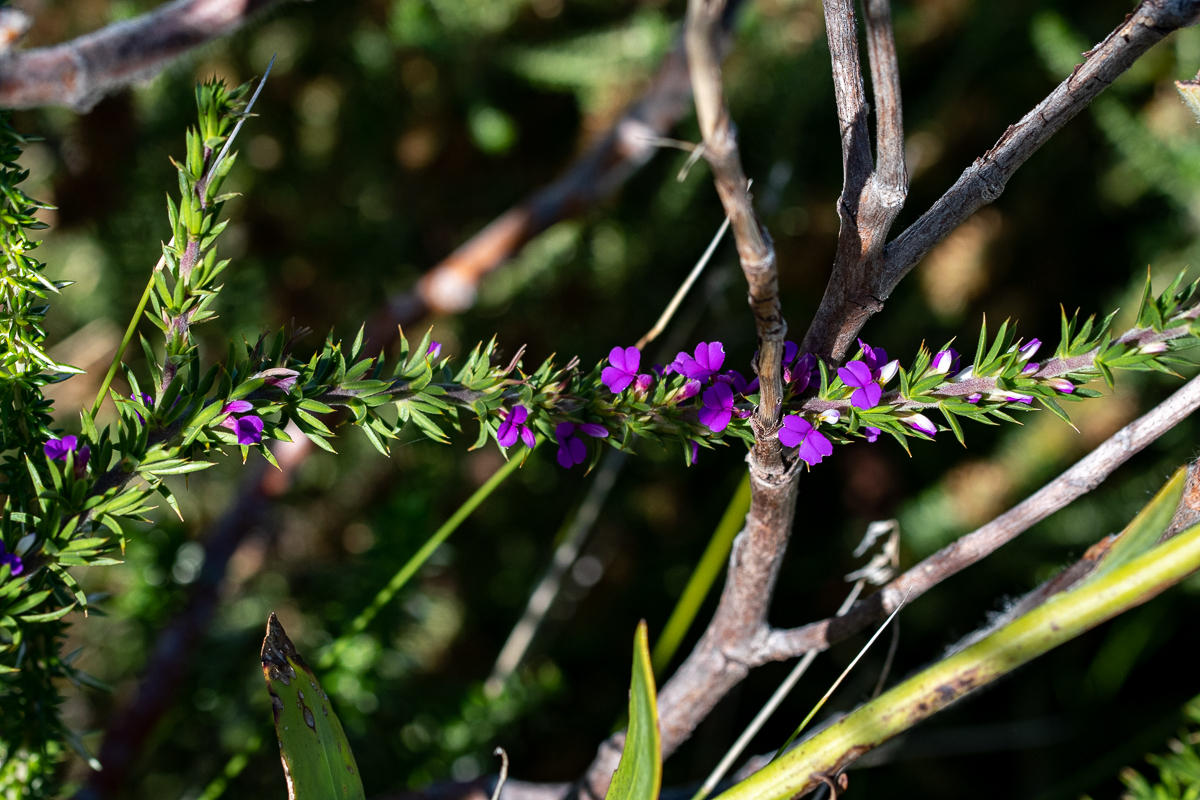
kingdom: Plantae
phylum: Tracheophyta
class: Magnoliopsida
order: Fabales
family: Polygalaceae
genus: Muraltia
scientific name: Muraltia heisteria
